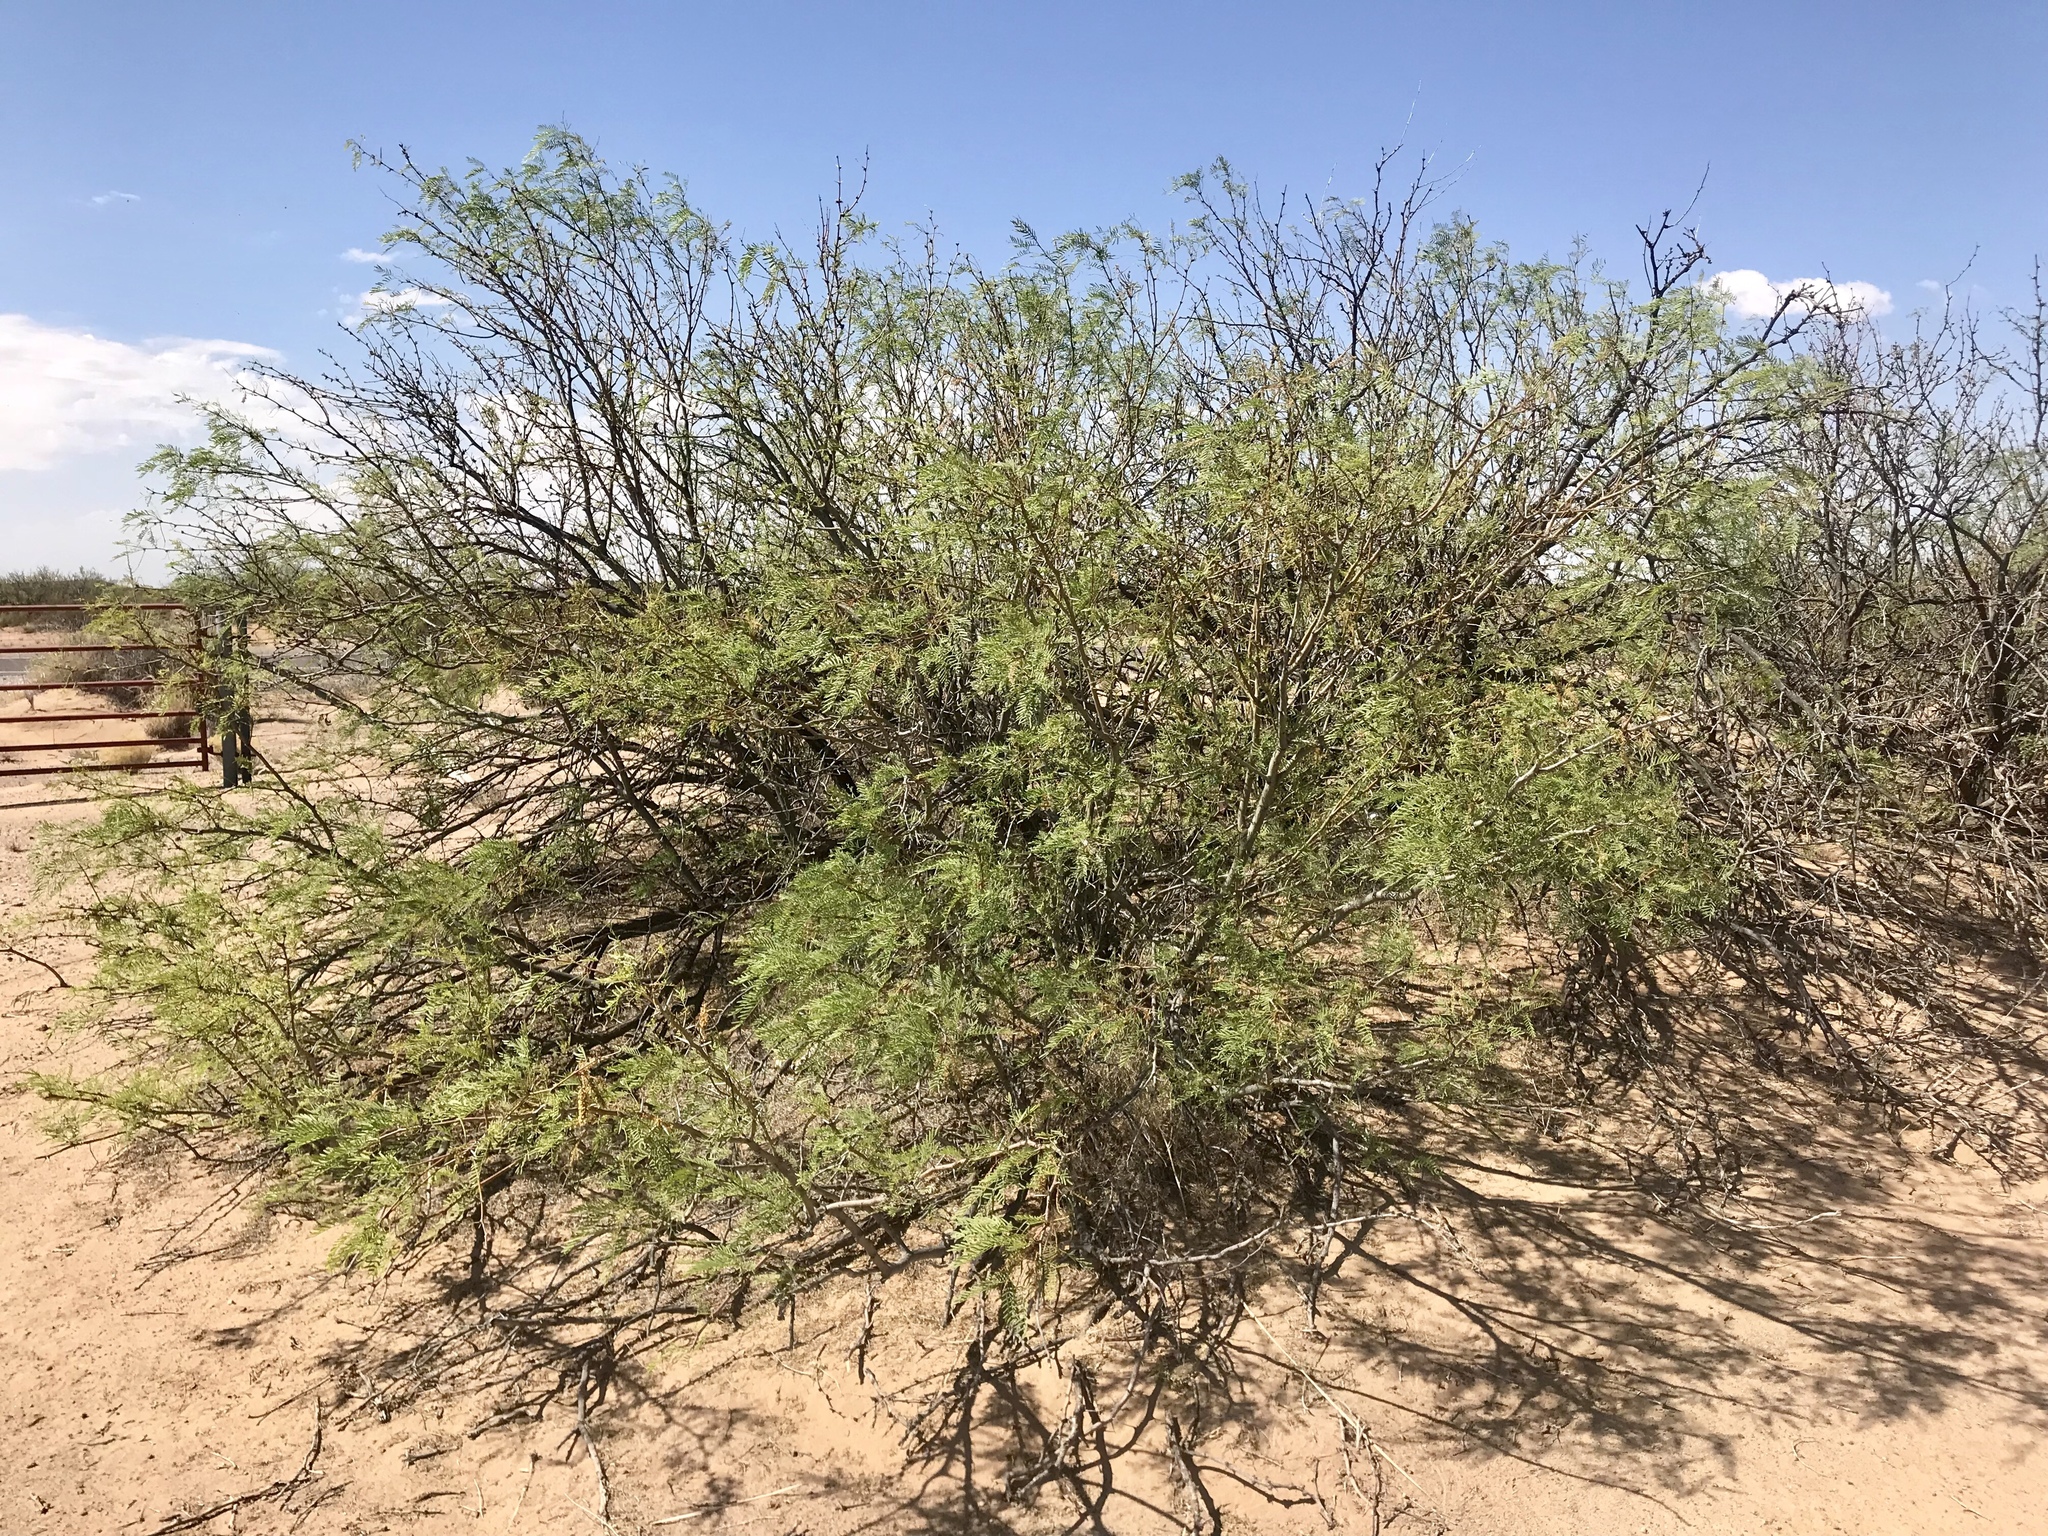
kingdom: Plantae
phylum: Tracheophyta
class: Magnoliopsida
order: Fabales
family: Fabaceae
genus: Prosopis
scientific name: Prosopis glandulosa
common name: Honey mesquite
